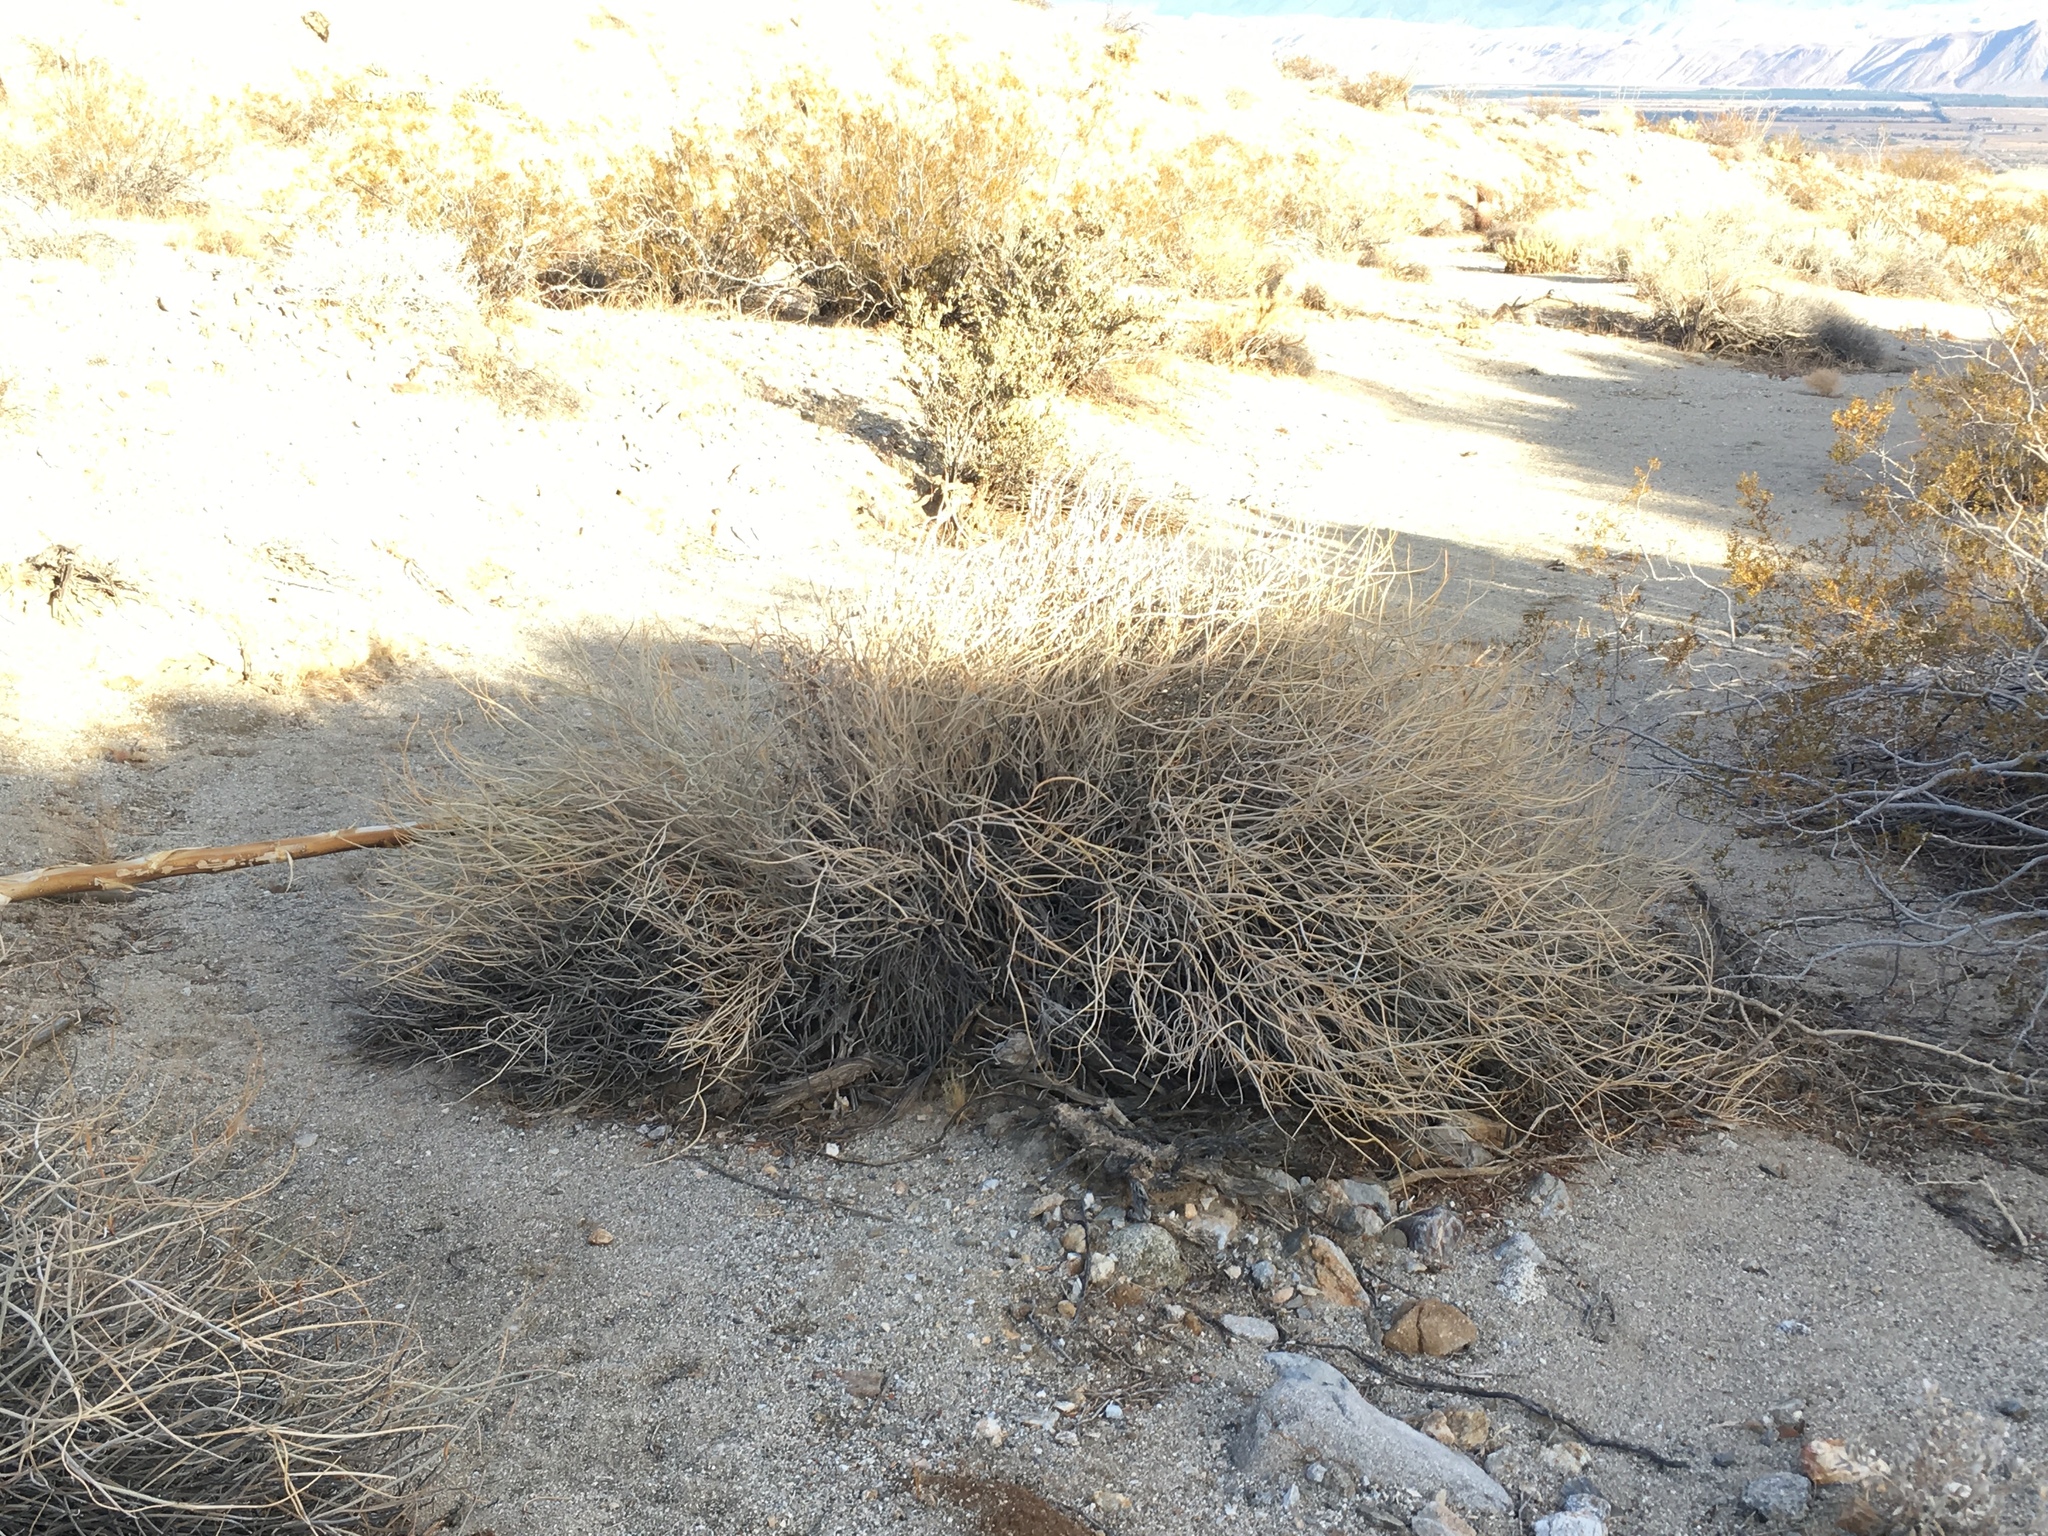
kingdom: Plantae
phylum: Tracheophyta
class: Magnoliopsida
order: Fabales
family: Fabaceae
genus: Senna
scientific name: Senna armata
